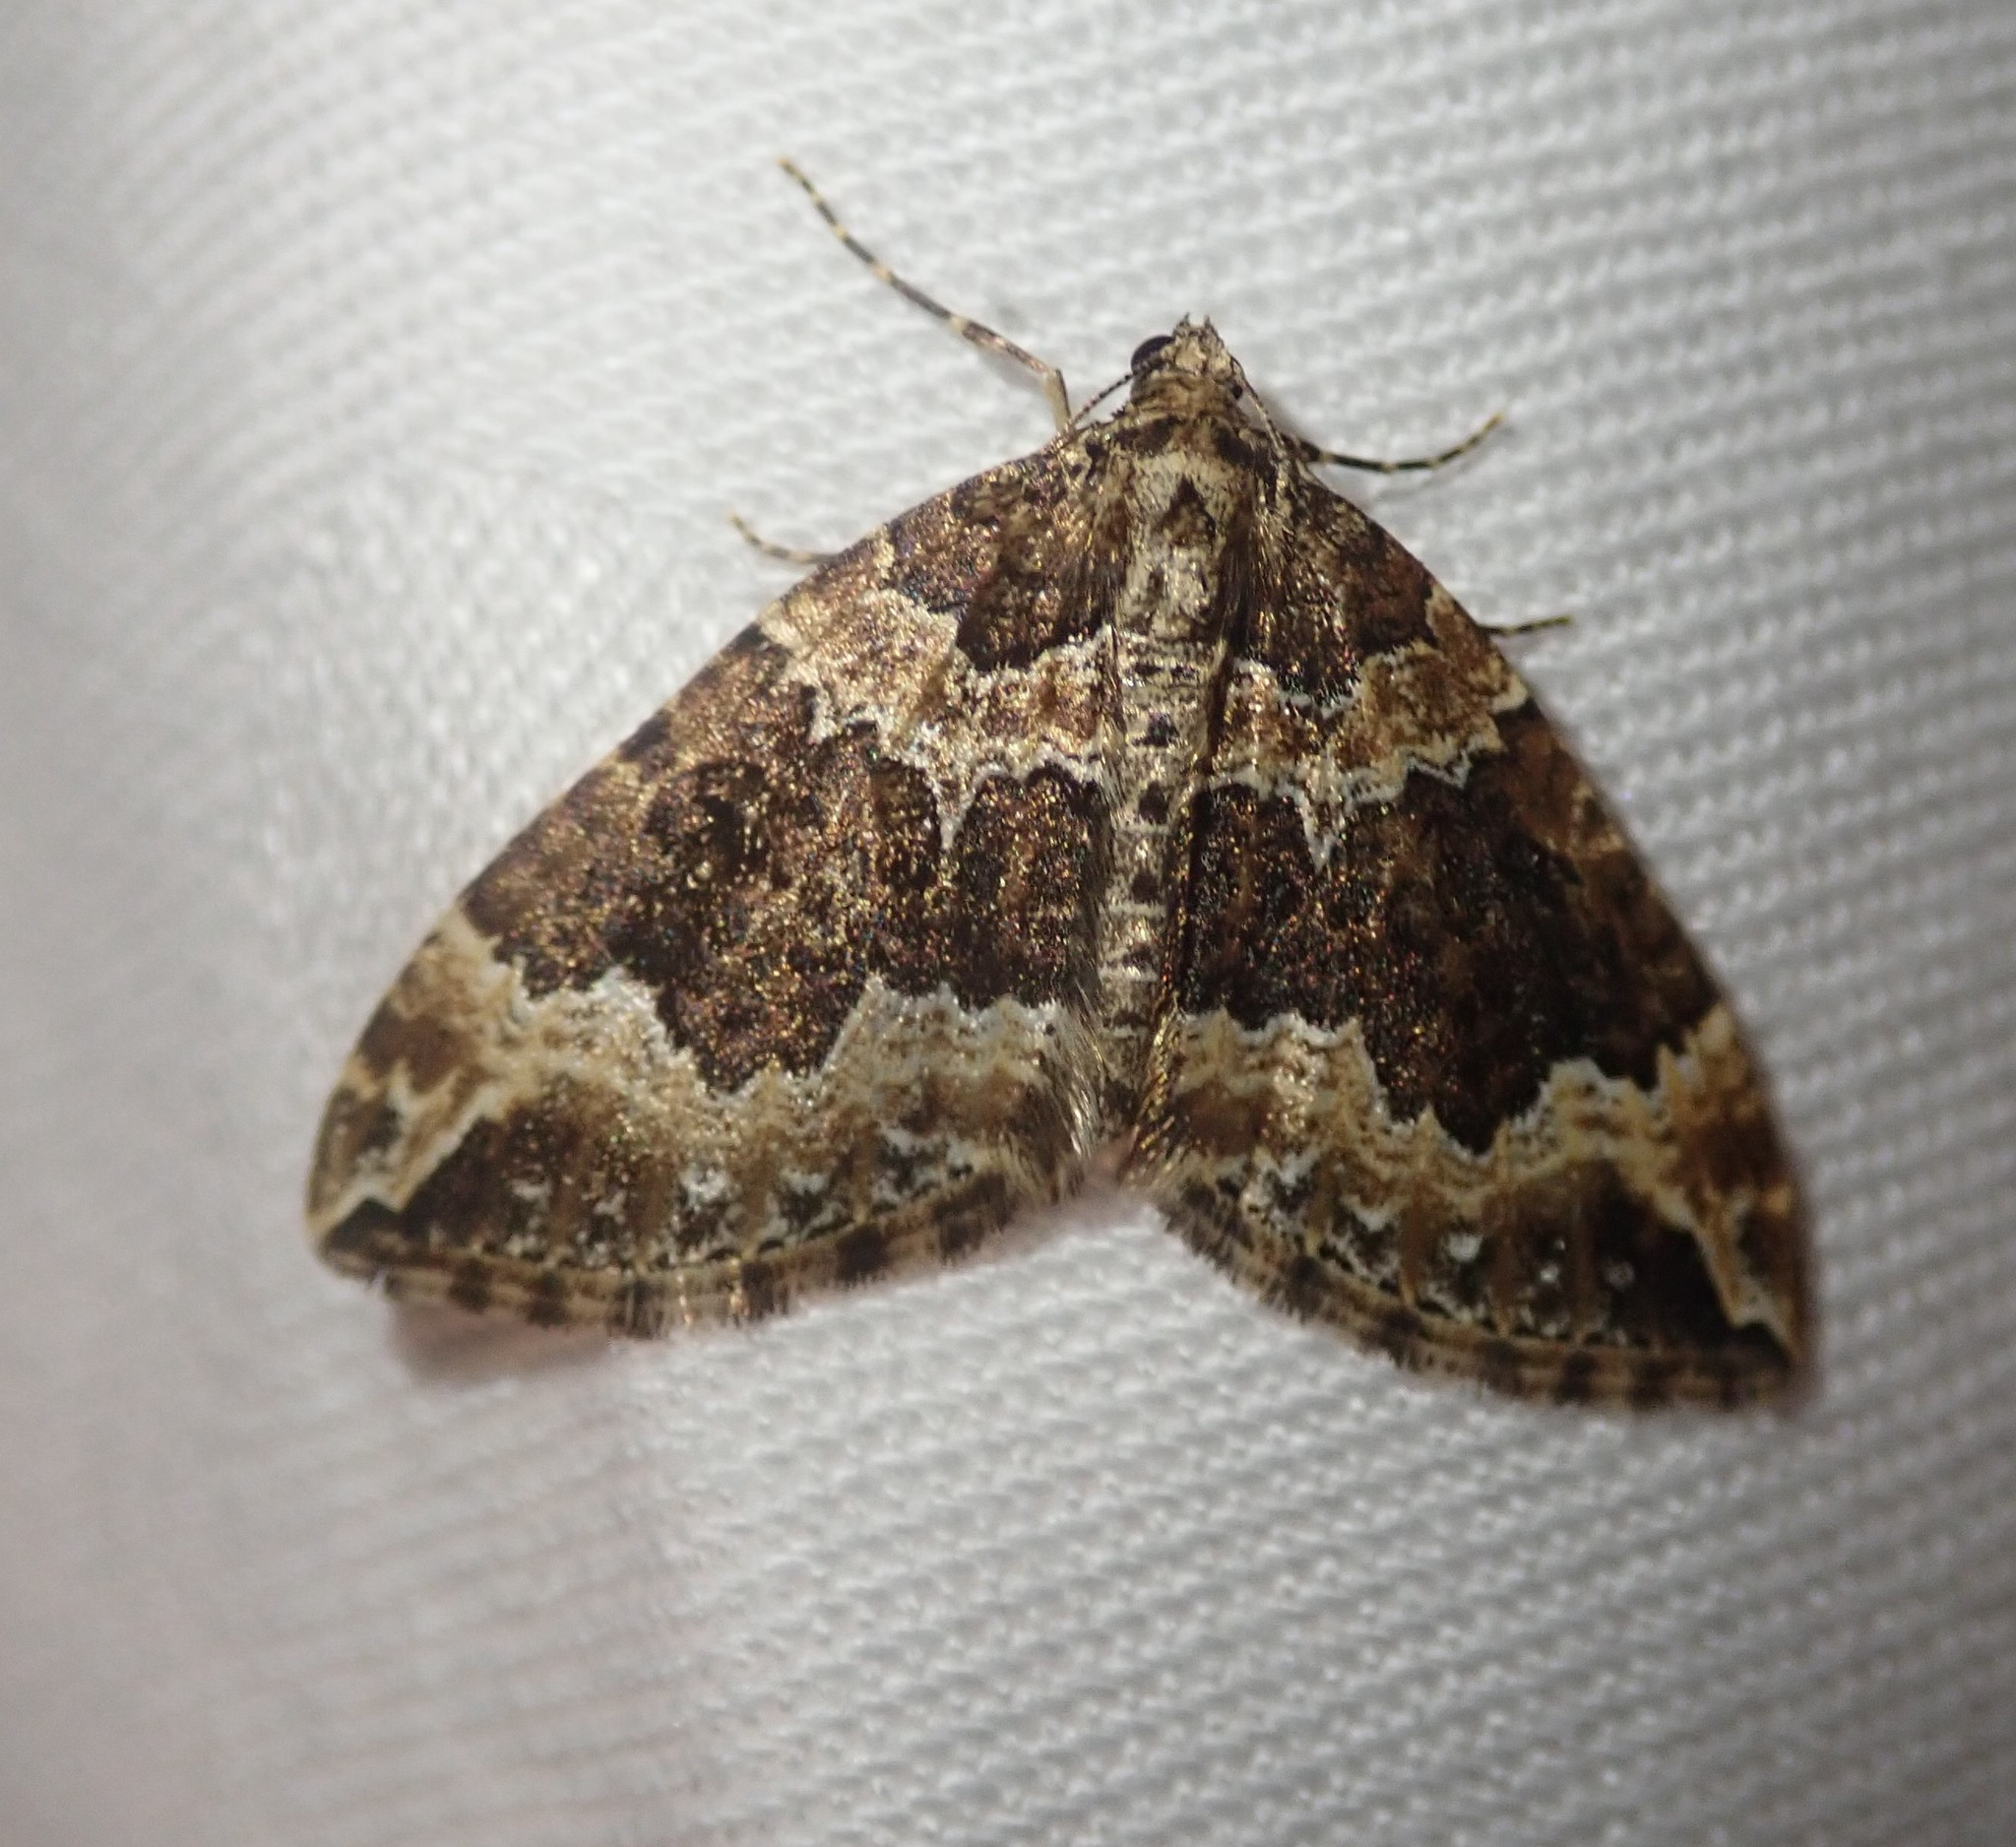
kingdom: Animalia
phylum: Arthropoda
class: Insecta
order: Lepidoptera
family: Geometridae
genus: Lampropteryx
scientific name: Lampropteryx suffumata
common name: Water carpet
